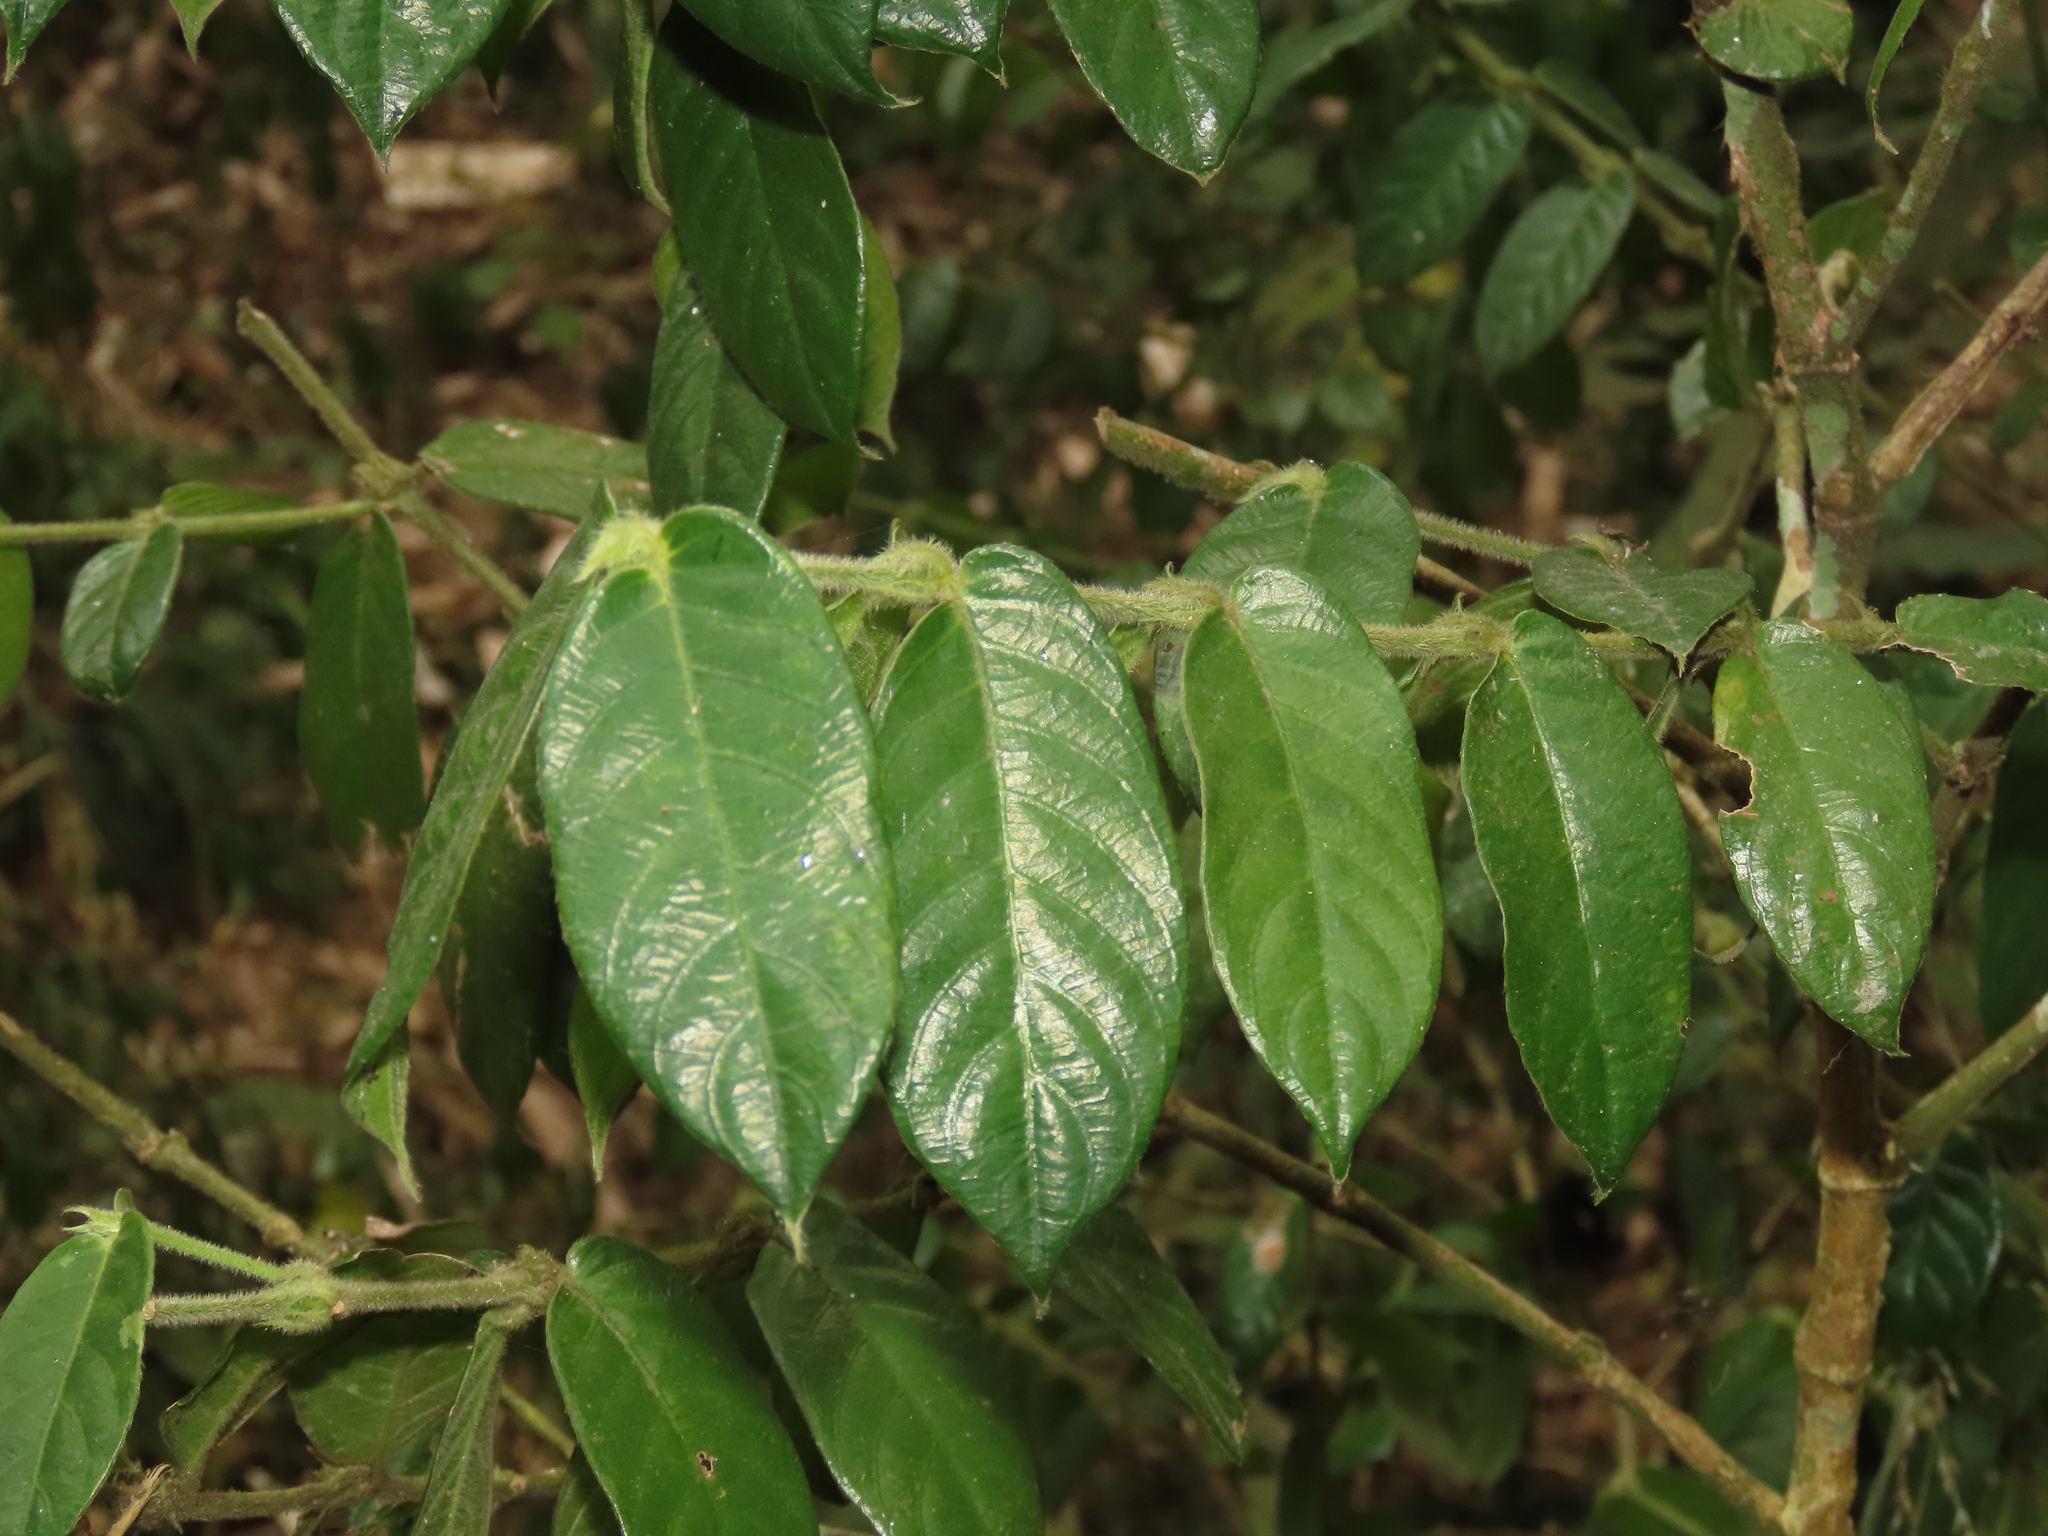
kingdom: Plantae
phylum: Tracheophyta
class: Magnoliopsida
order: Gentianales
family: Rubiaceae
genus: Lasianthus
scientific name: Lasianthus attenuatus
